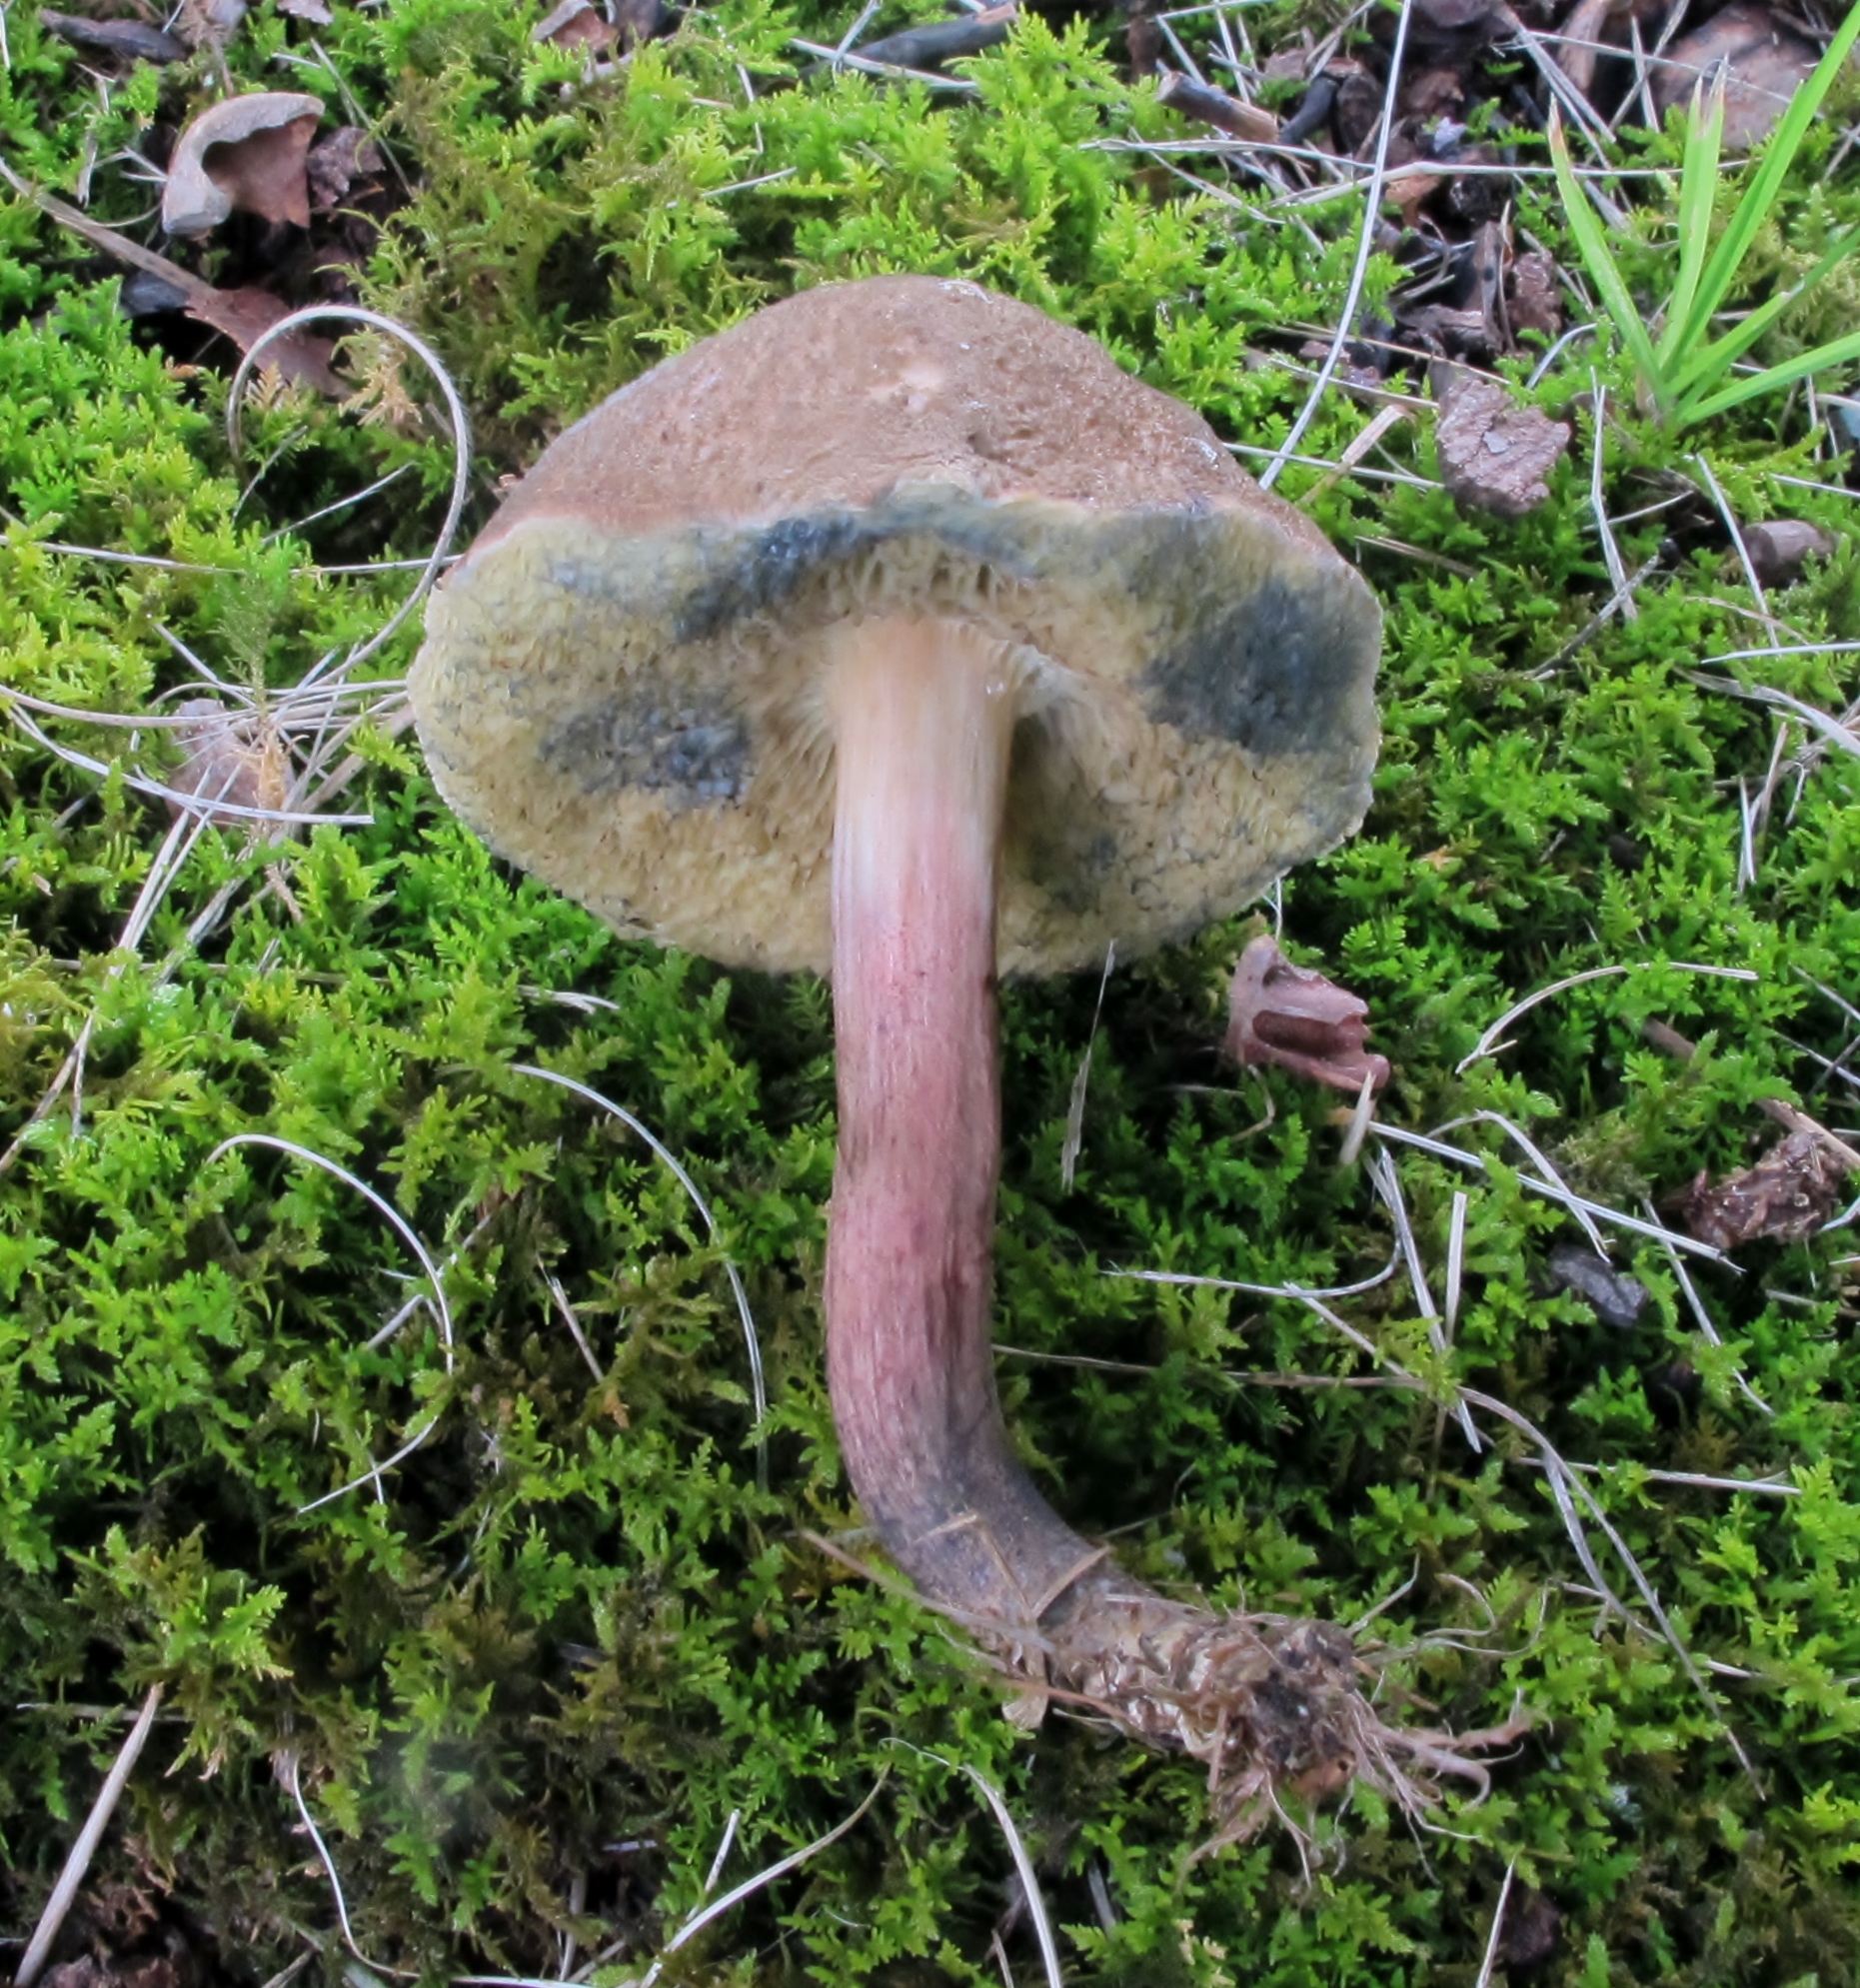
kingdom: Fungi
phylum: Basidiomycota
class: Agaricomycetes
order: Boletales
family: Boletaceae
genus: Xerocomellus
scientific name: Xerocomellus chrysenteron
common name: Red-cracking bolete
